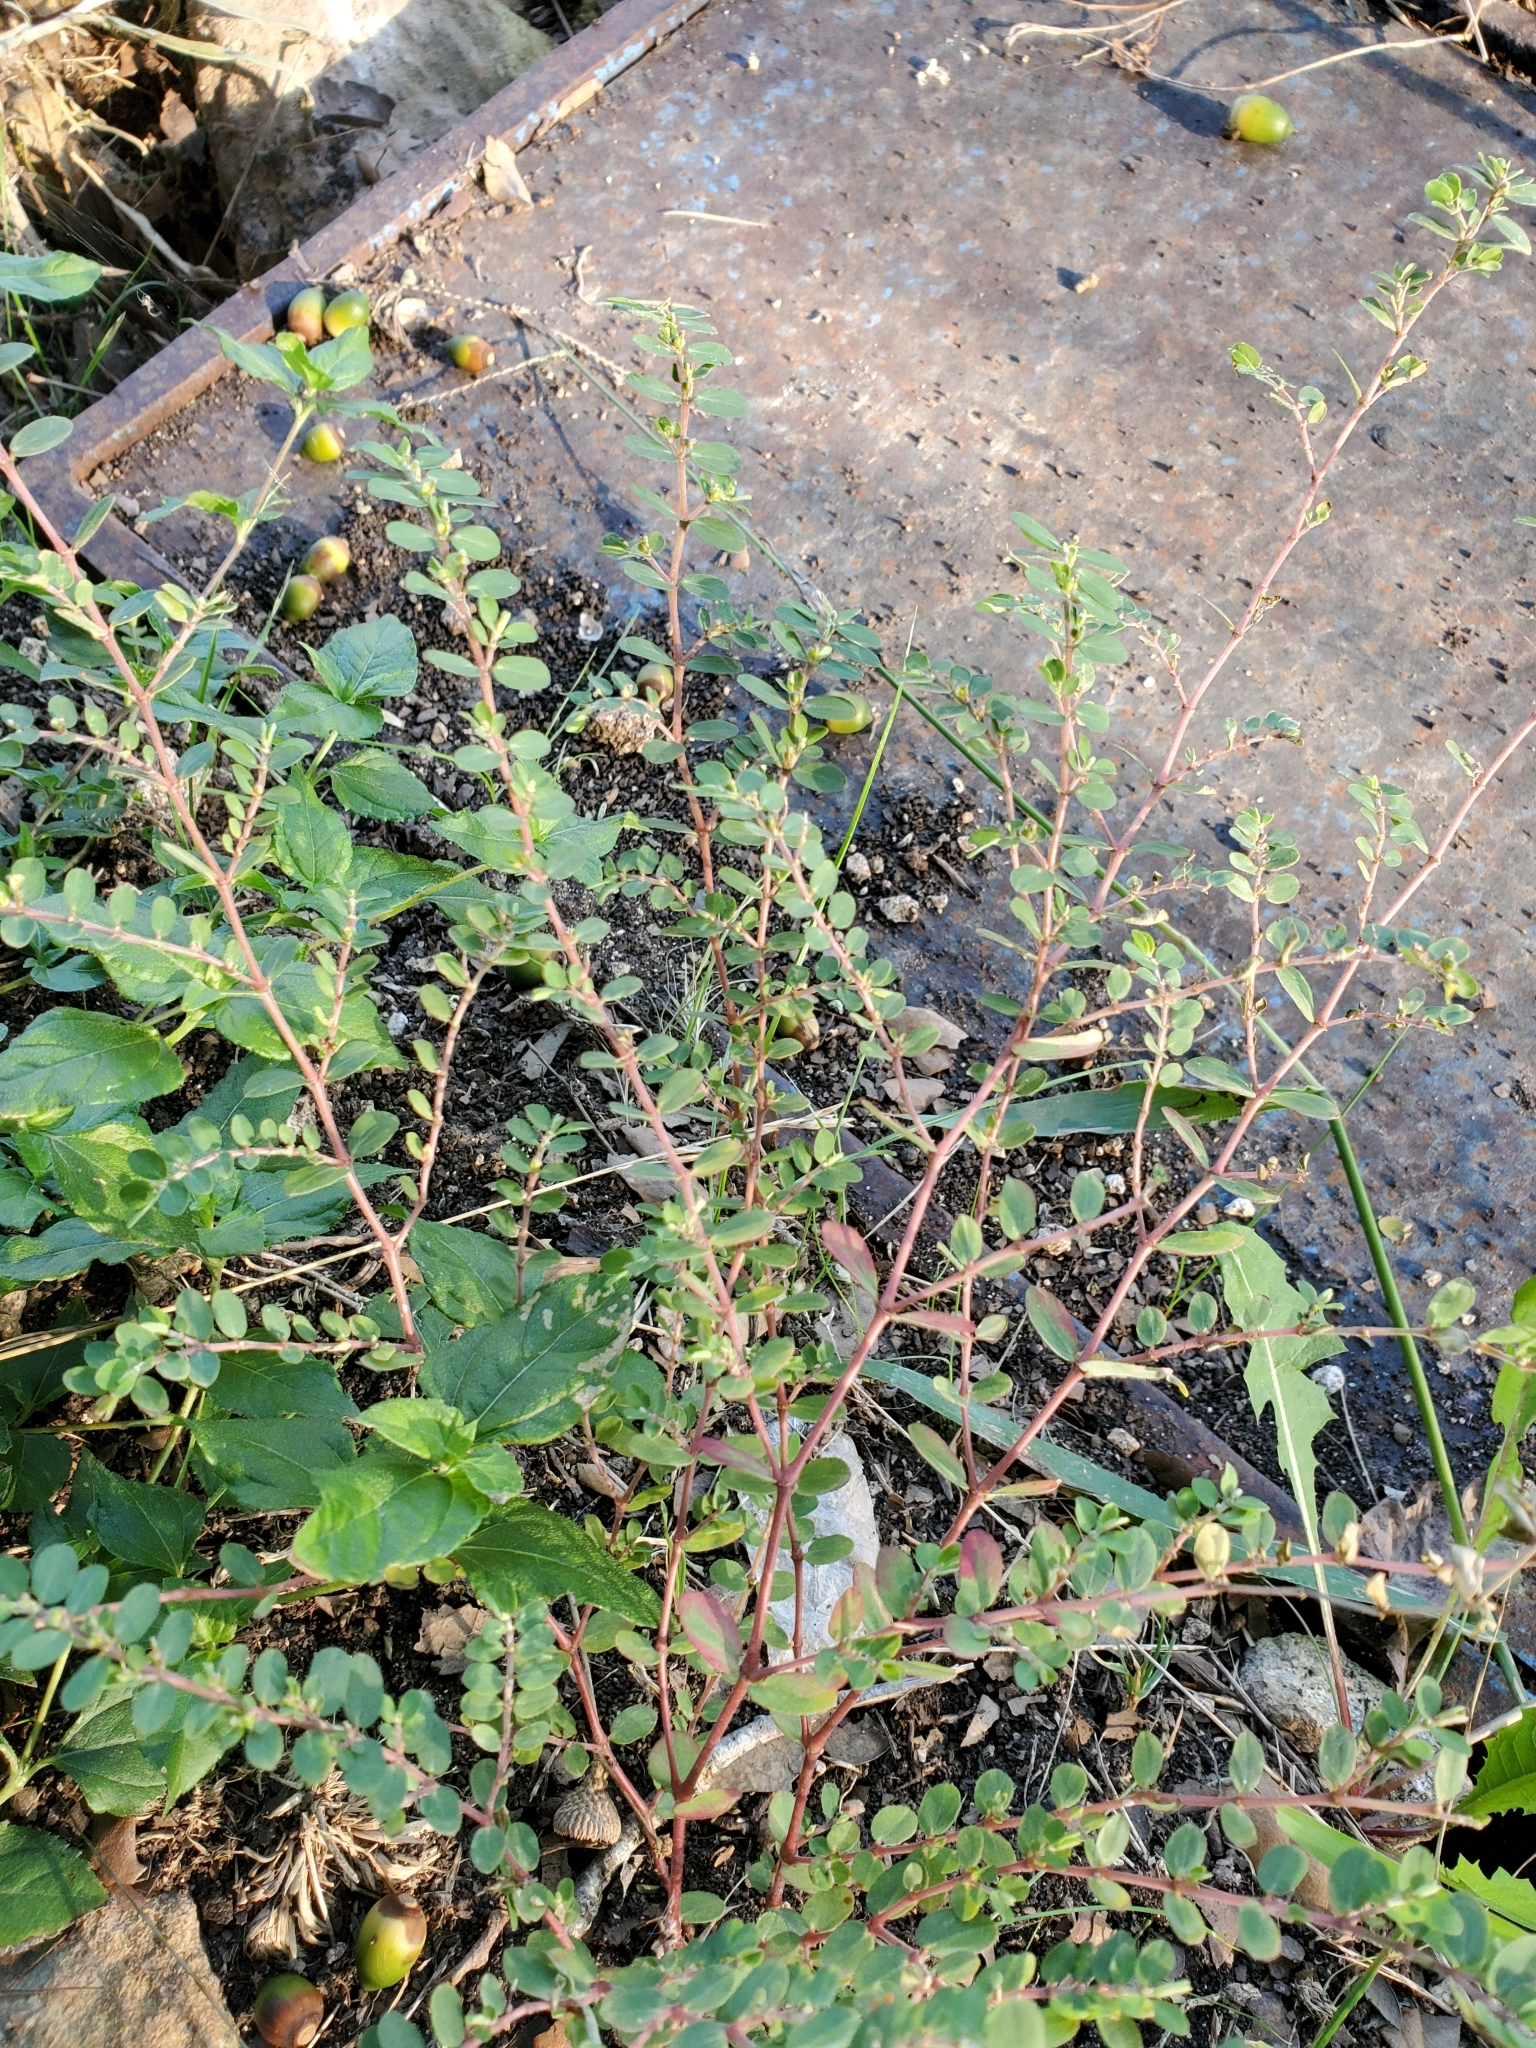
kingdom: Plantae
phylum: Tracheophyta
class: Magnoliopsida
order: Malpighiales
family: Euphorbiaceae
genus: Euphorbia
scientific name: Euphorbia prostrata
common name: Prostrate sandmat
